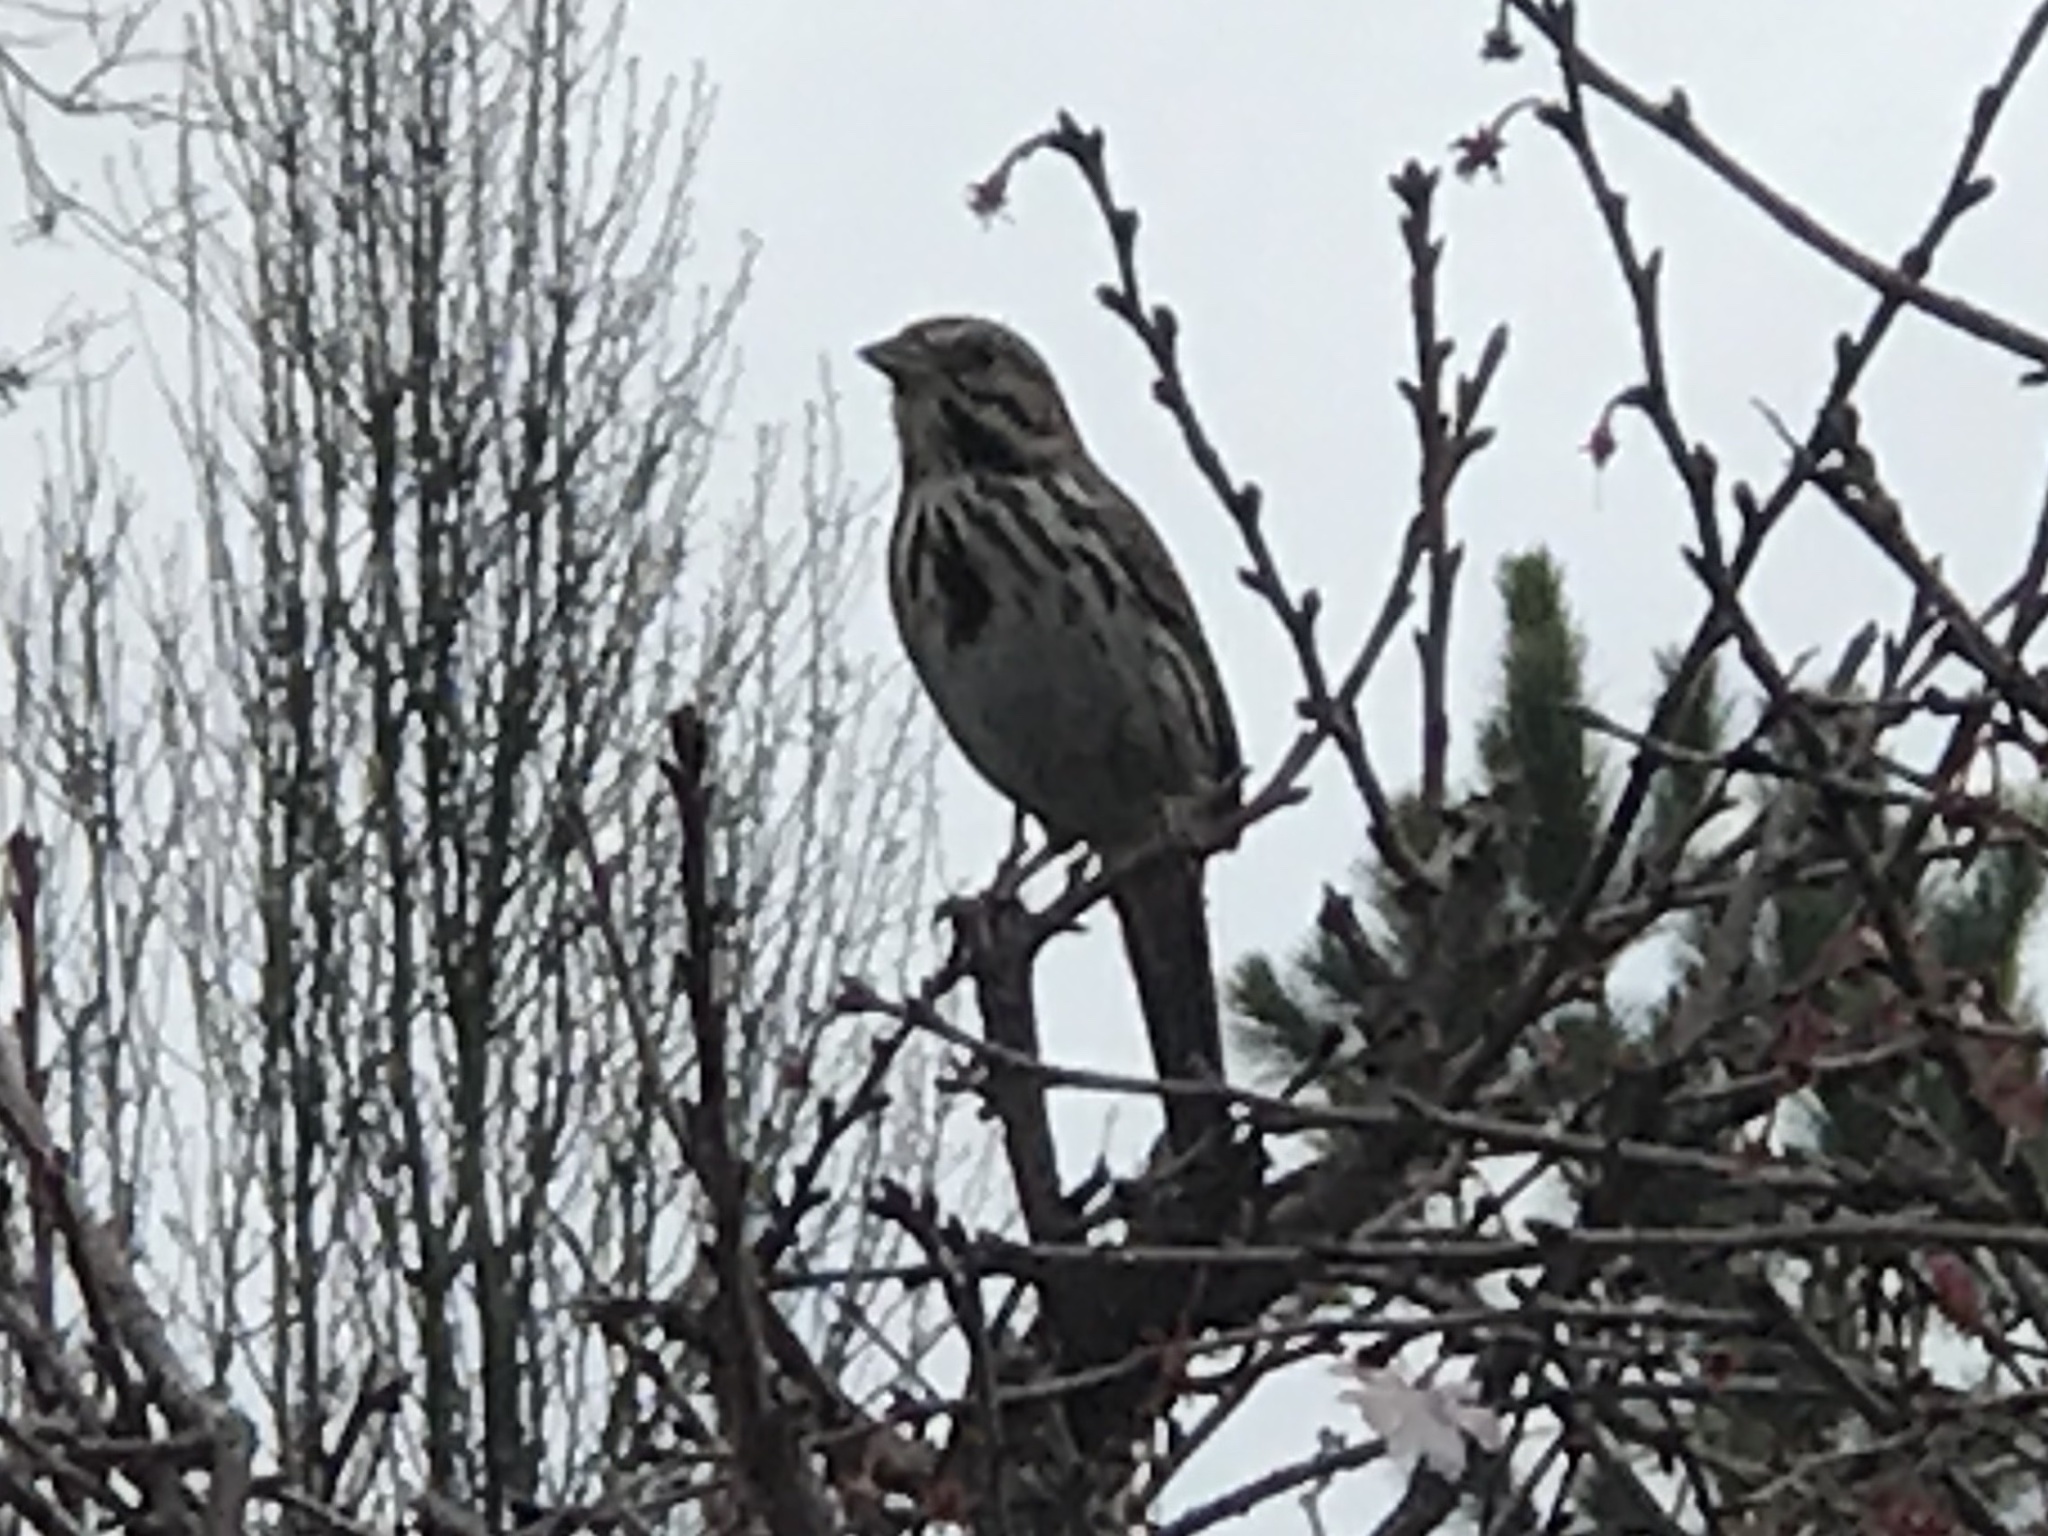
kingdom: Animalia
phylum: Chordata
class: Aves
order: Passeriformes
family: Passerellidae
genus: Melospiza
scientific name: Melospiza melodia
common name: Song sparrow
